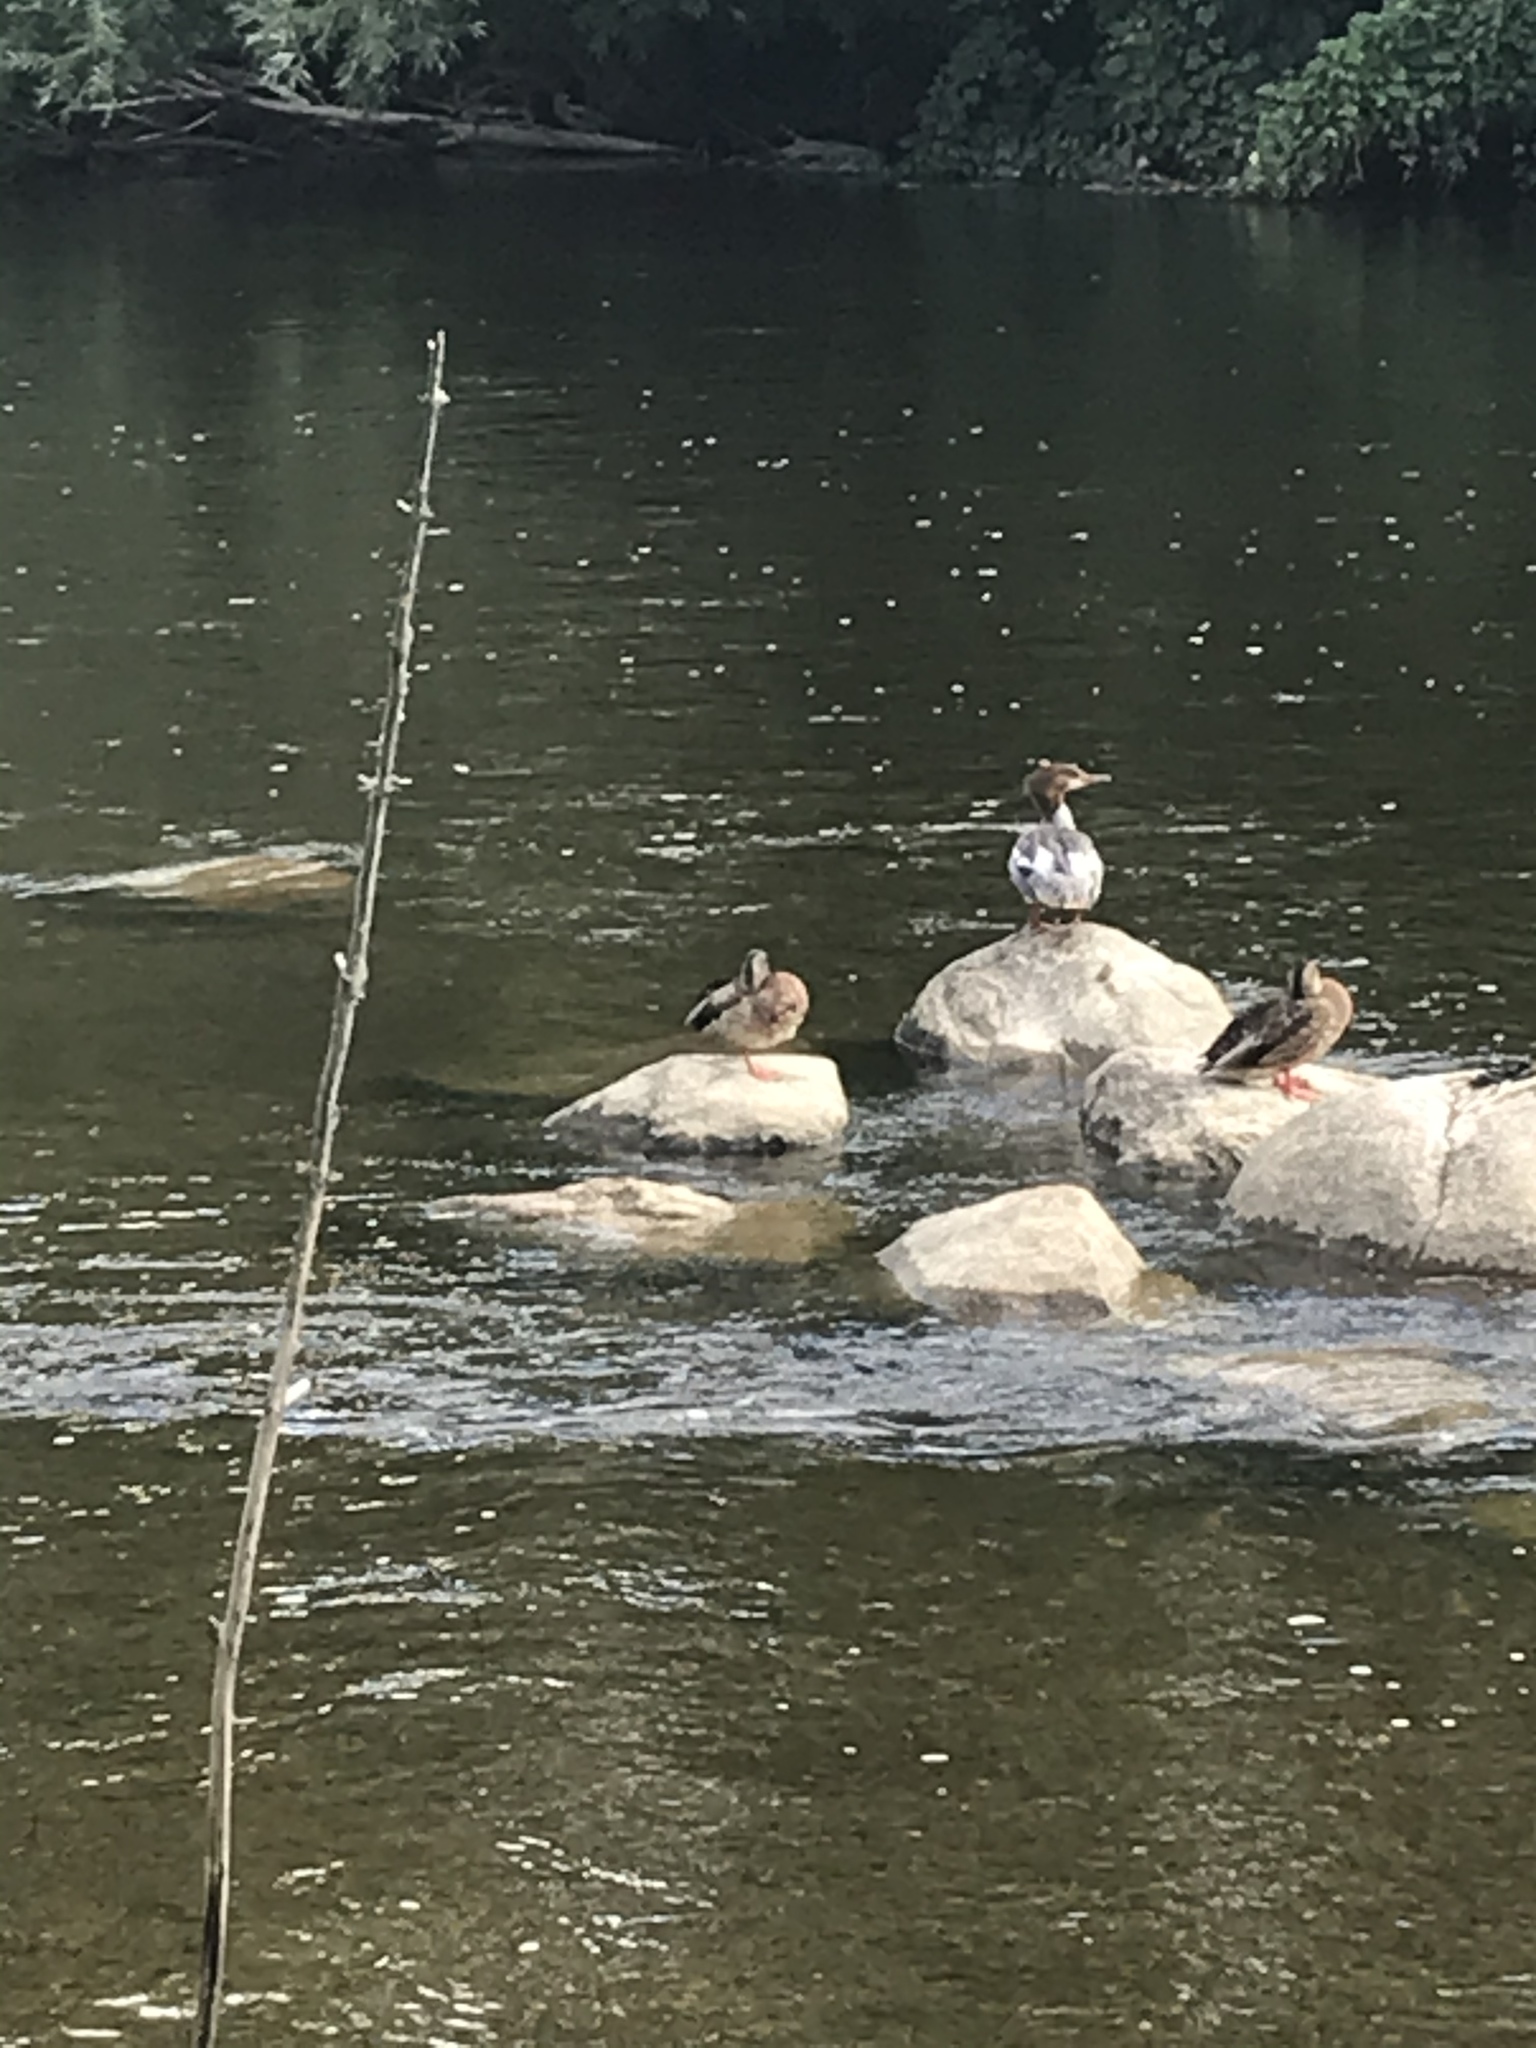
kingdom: Animalia
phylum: Chordata
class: Aves
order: Anseriformes
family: Anatidae
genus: Mergus
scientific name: Mergus merganser
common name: Common merganser
